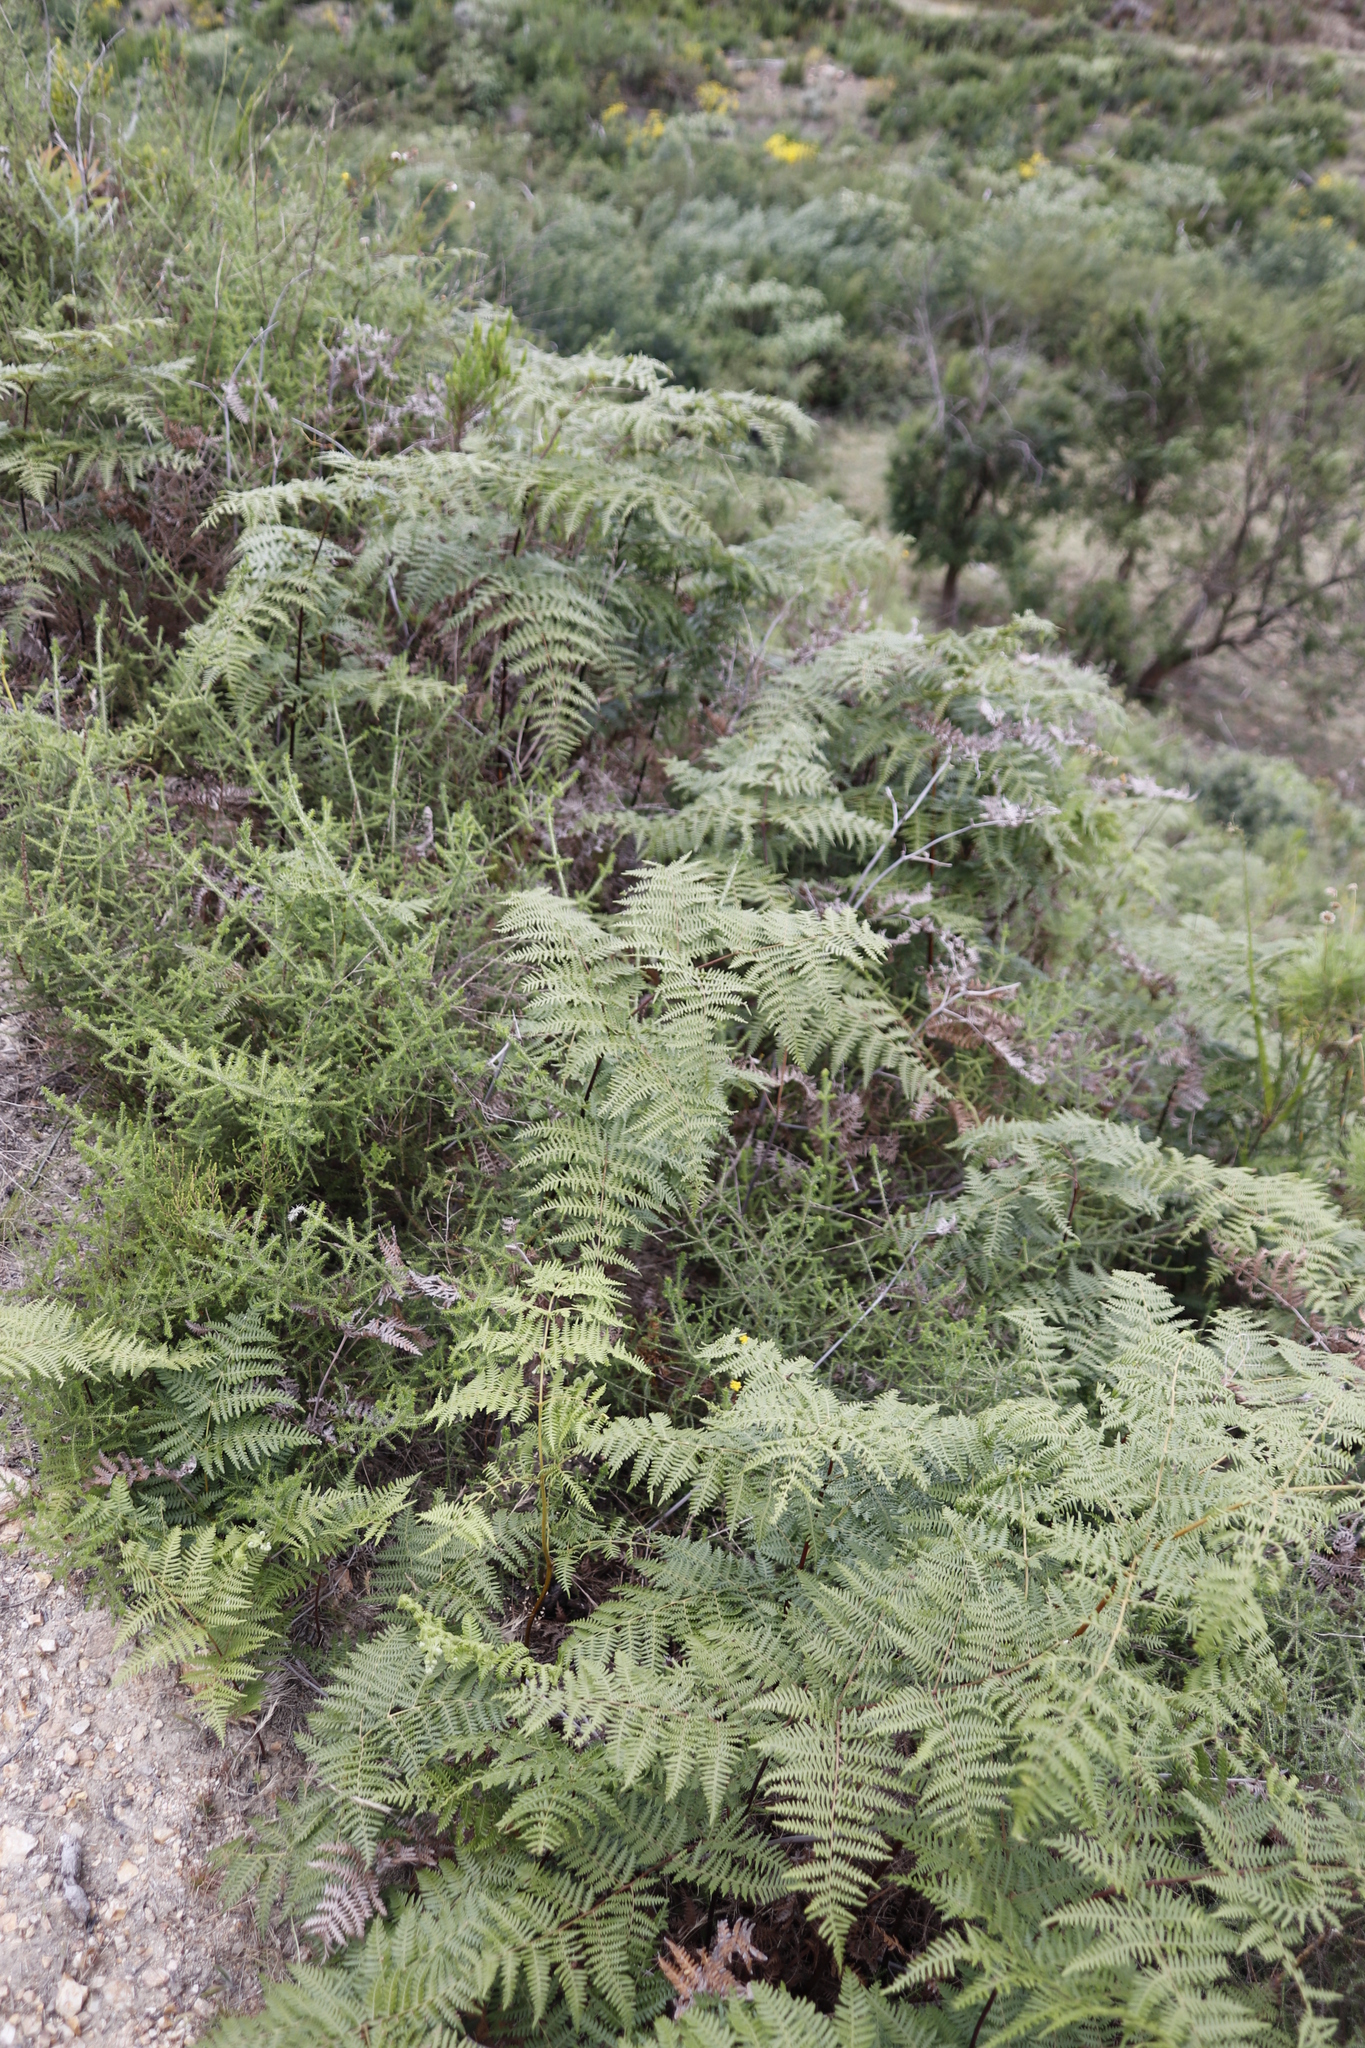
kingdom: Plantae
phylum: Tracheophyta
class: Polypodiopsida
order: Polypodiales
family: Dennstaedtiaceae
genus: Pteridium
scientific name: Pteridium aquilinum
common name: Bracken
